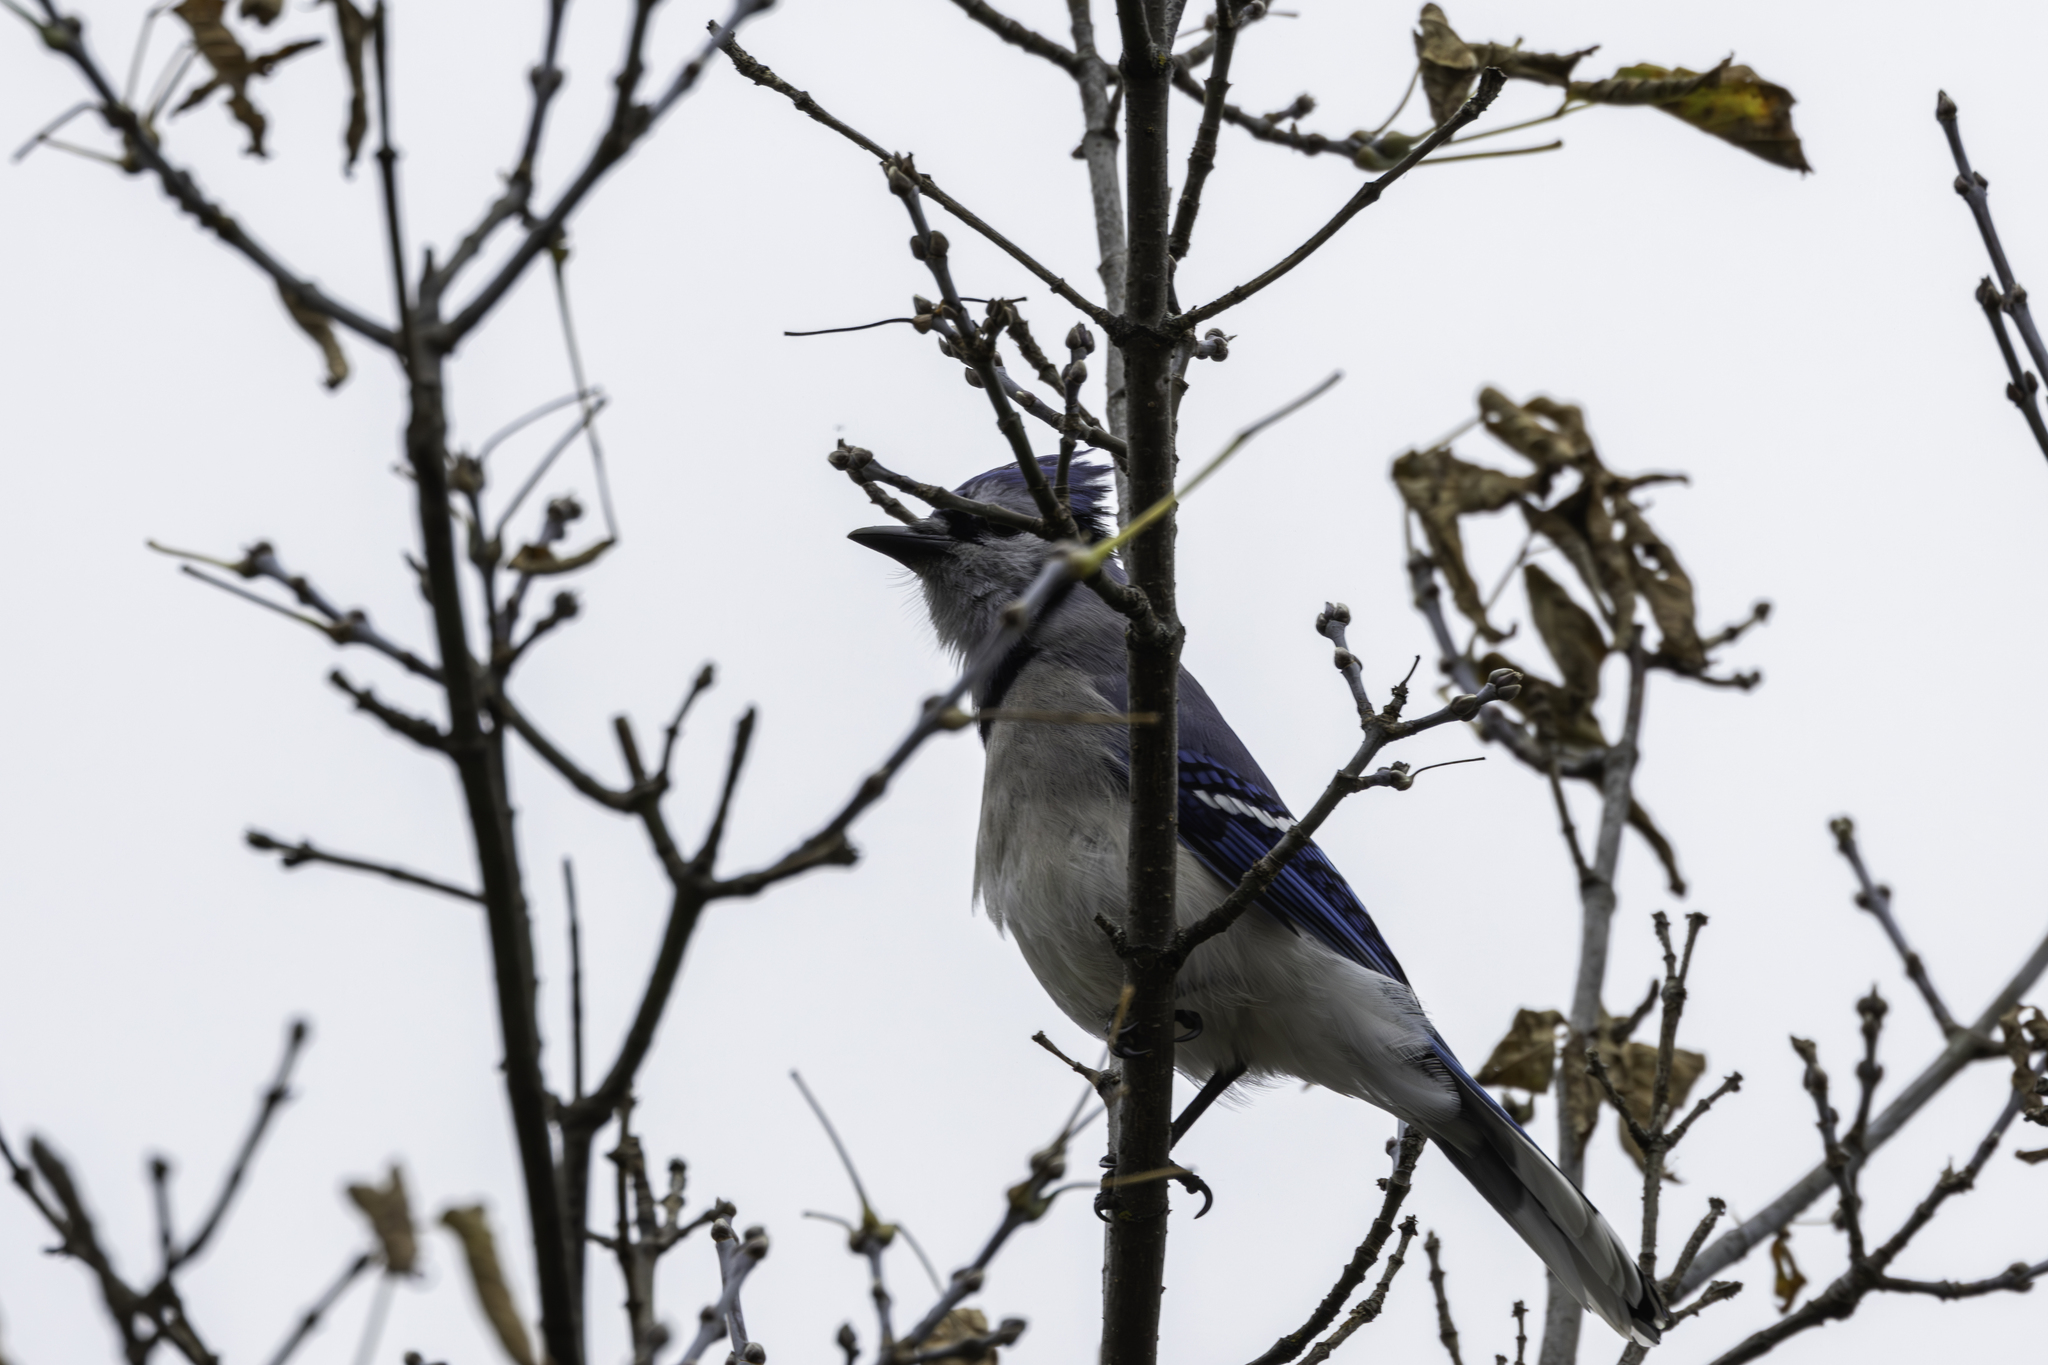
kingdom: Animalia
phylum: Chordata
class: Aves
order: Passeriformes
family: Corvidae
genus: Cyanocitta
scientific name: Cyanocitta cristata
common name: Blue jay
